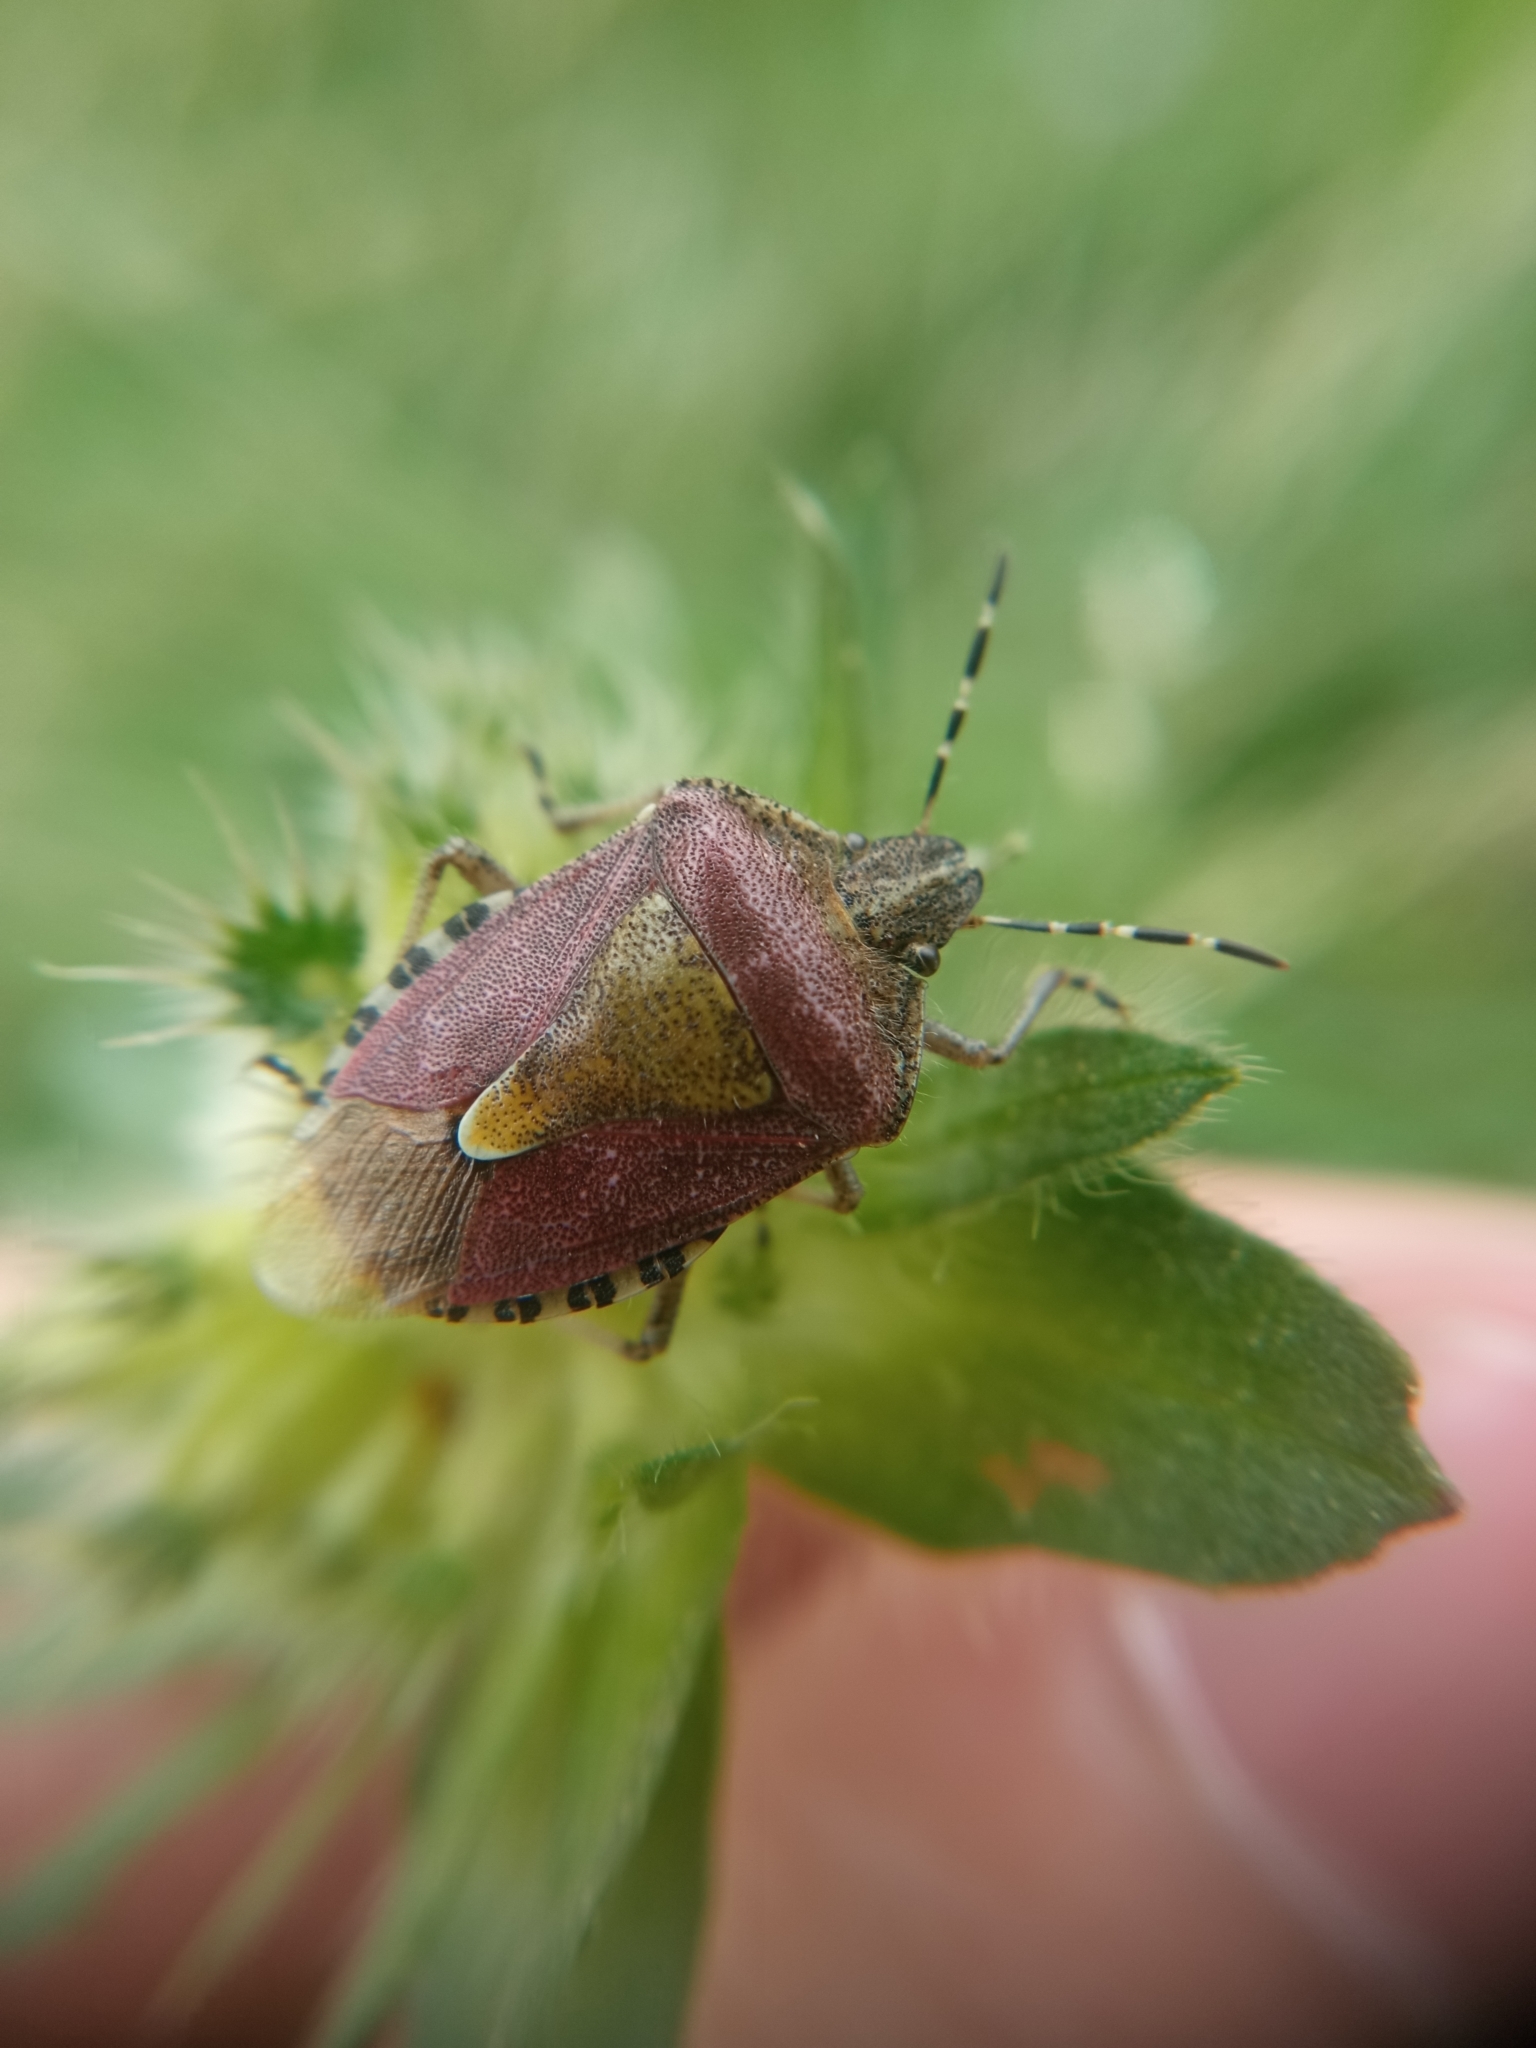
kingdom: Animalia
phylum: Arthropoda
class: Insecta
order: Hemiptera
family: Pentatomidae
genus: Dolycoris
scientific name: Dolycoris baccarum
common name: Sloe bug
